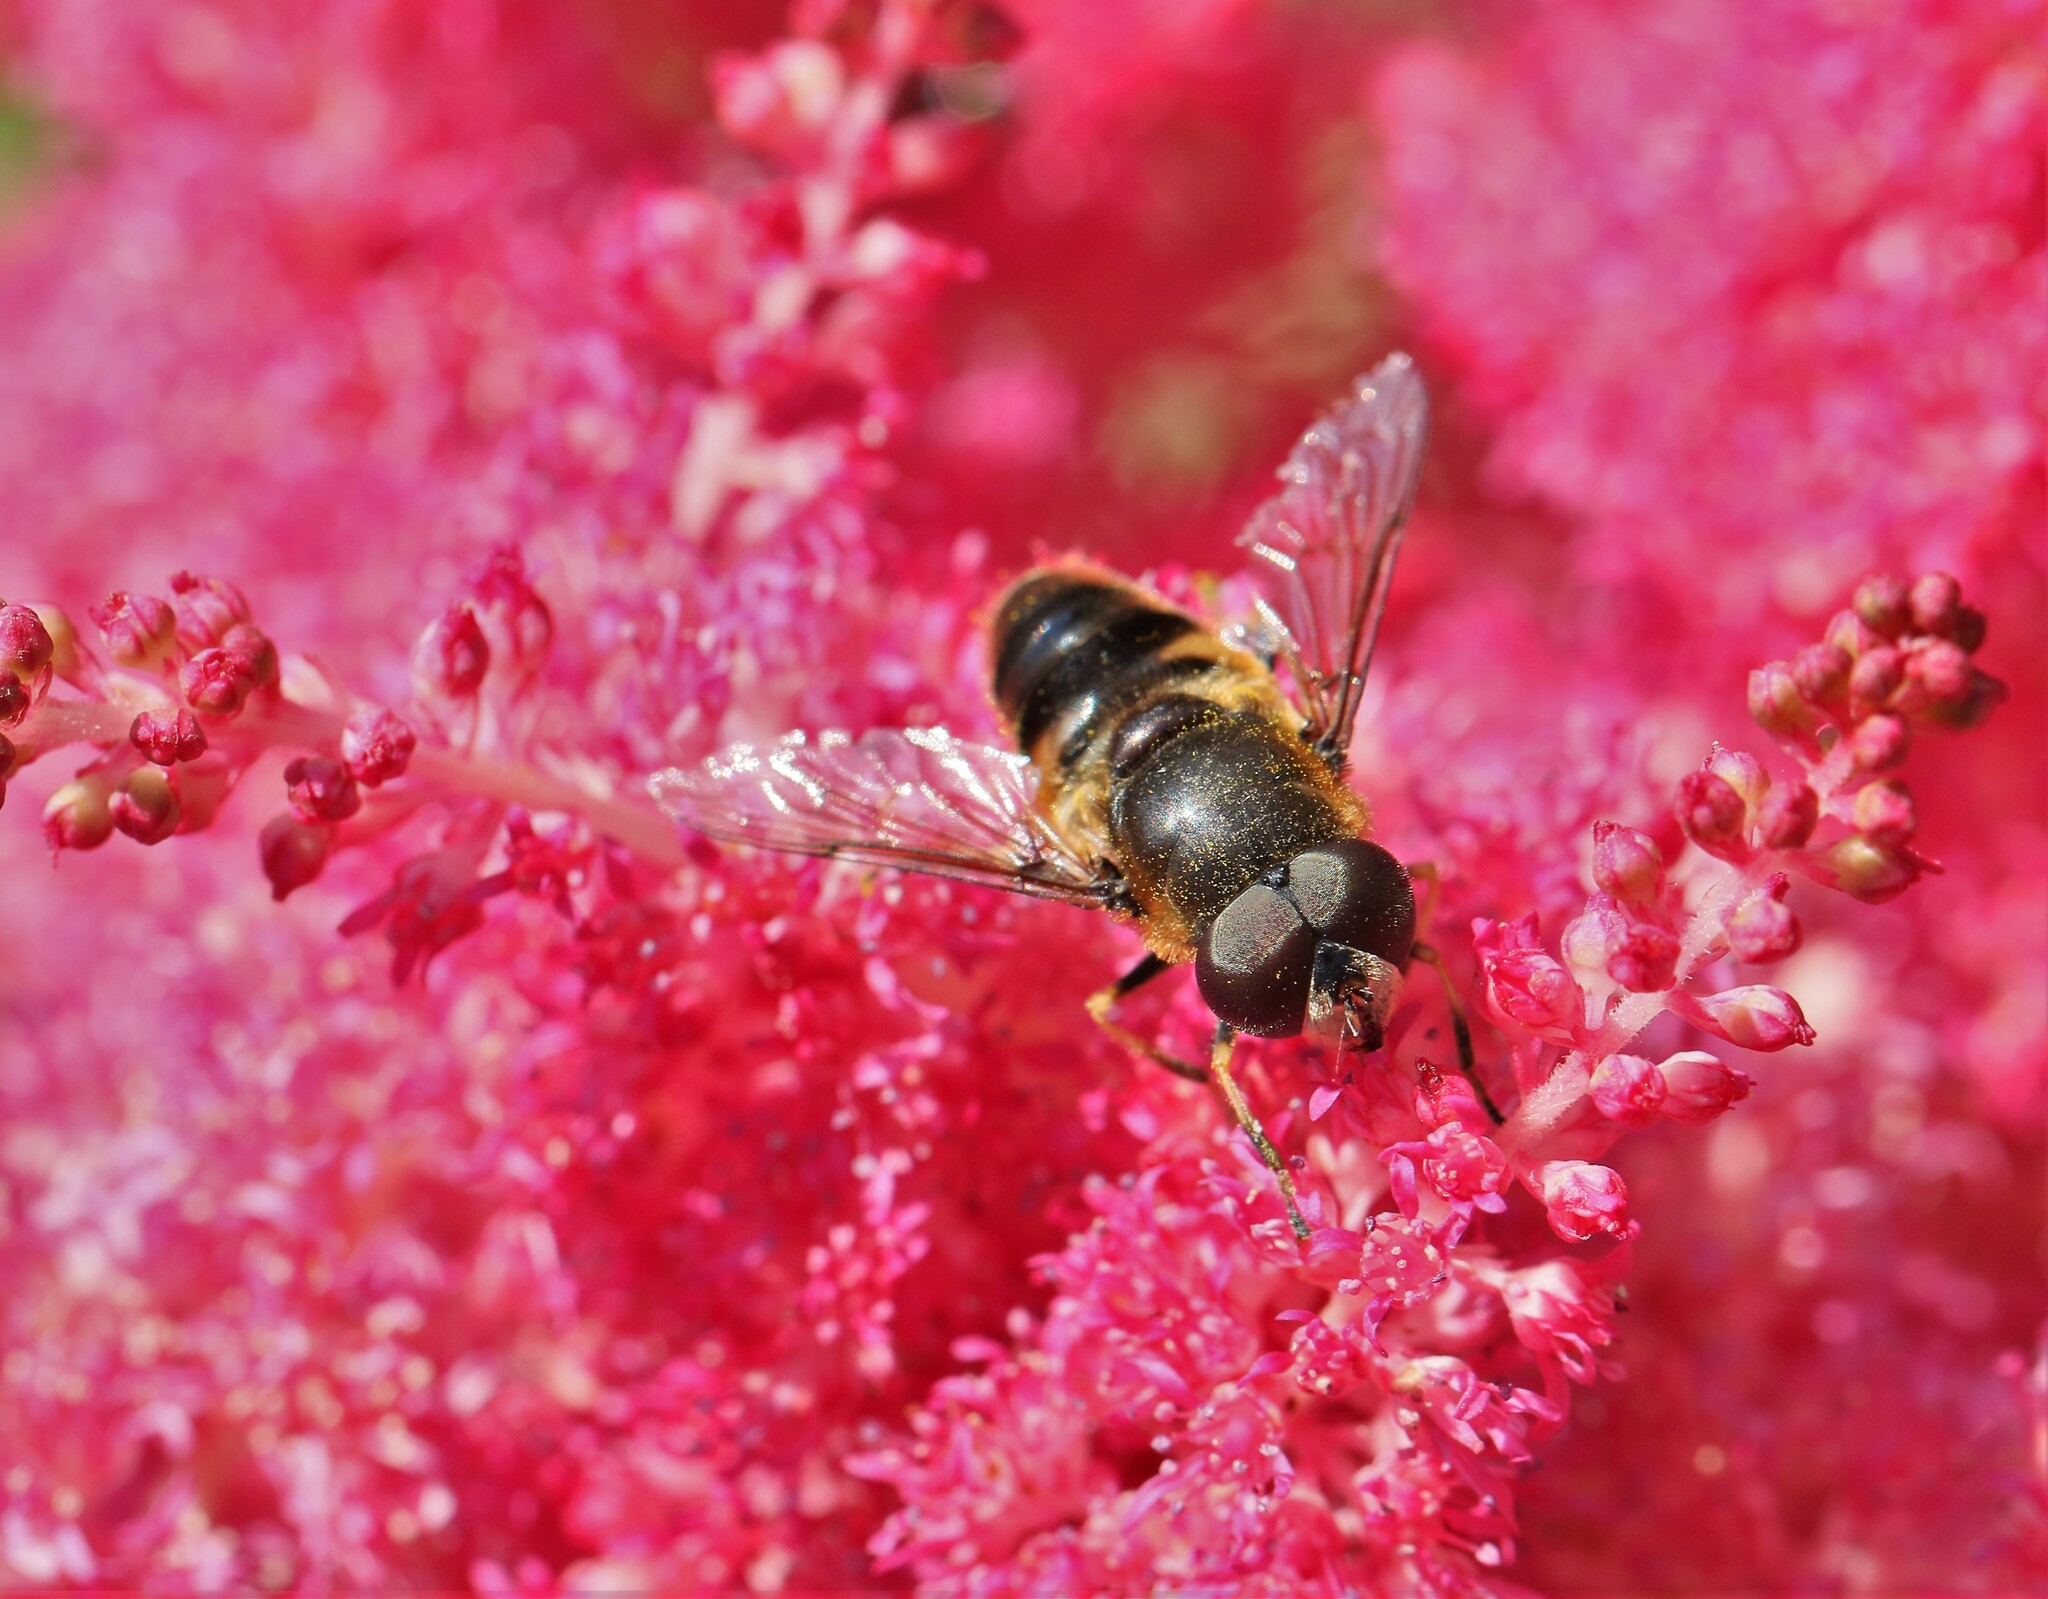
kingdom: Animalia
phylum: Arthropoda
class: Insecta
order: Diptera
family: Syrphidae
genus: Eristalis
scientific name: Eristalis obscura
